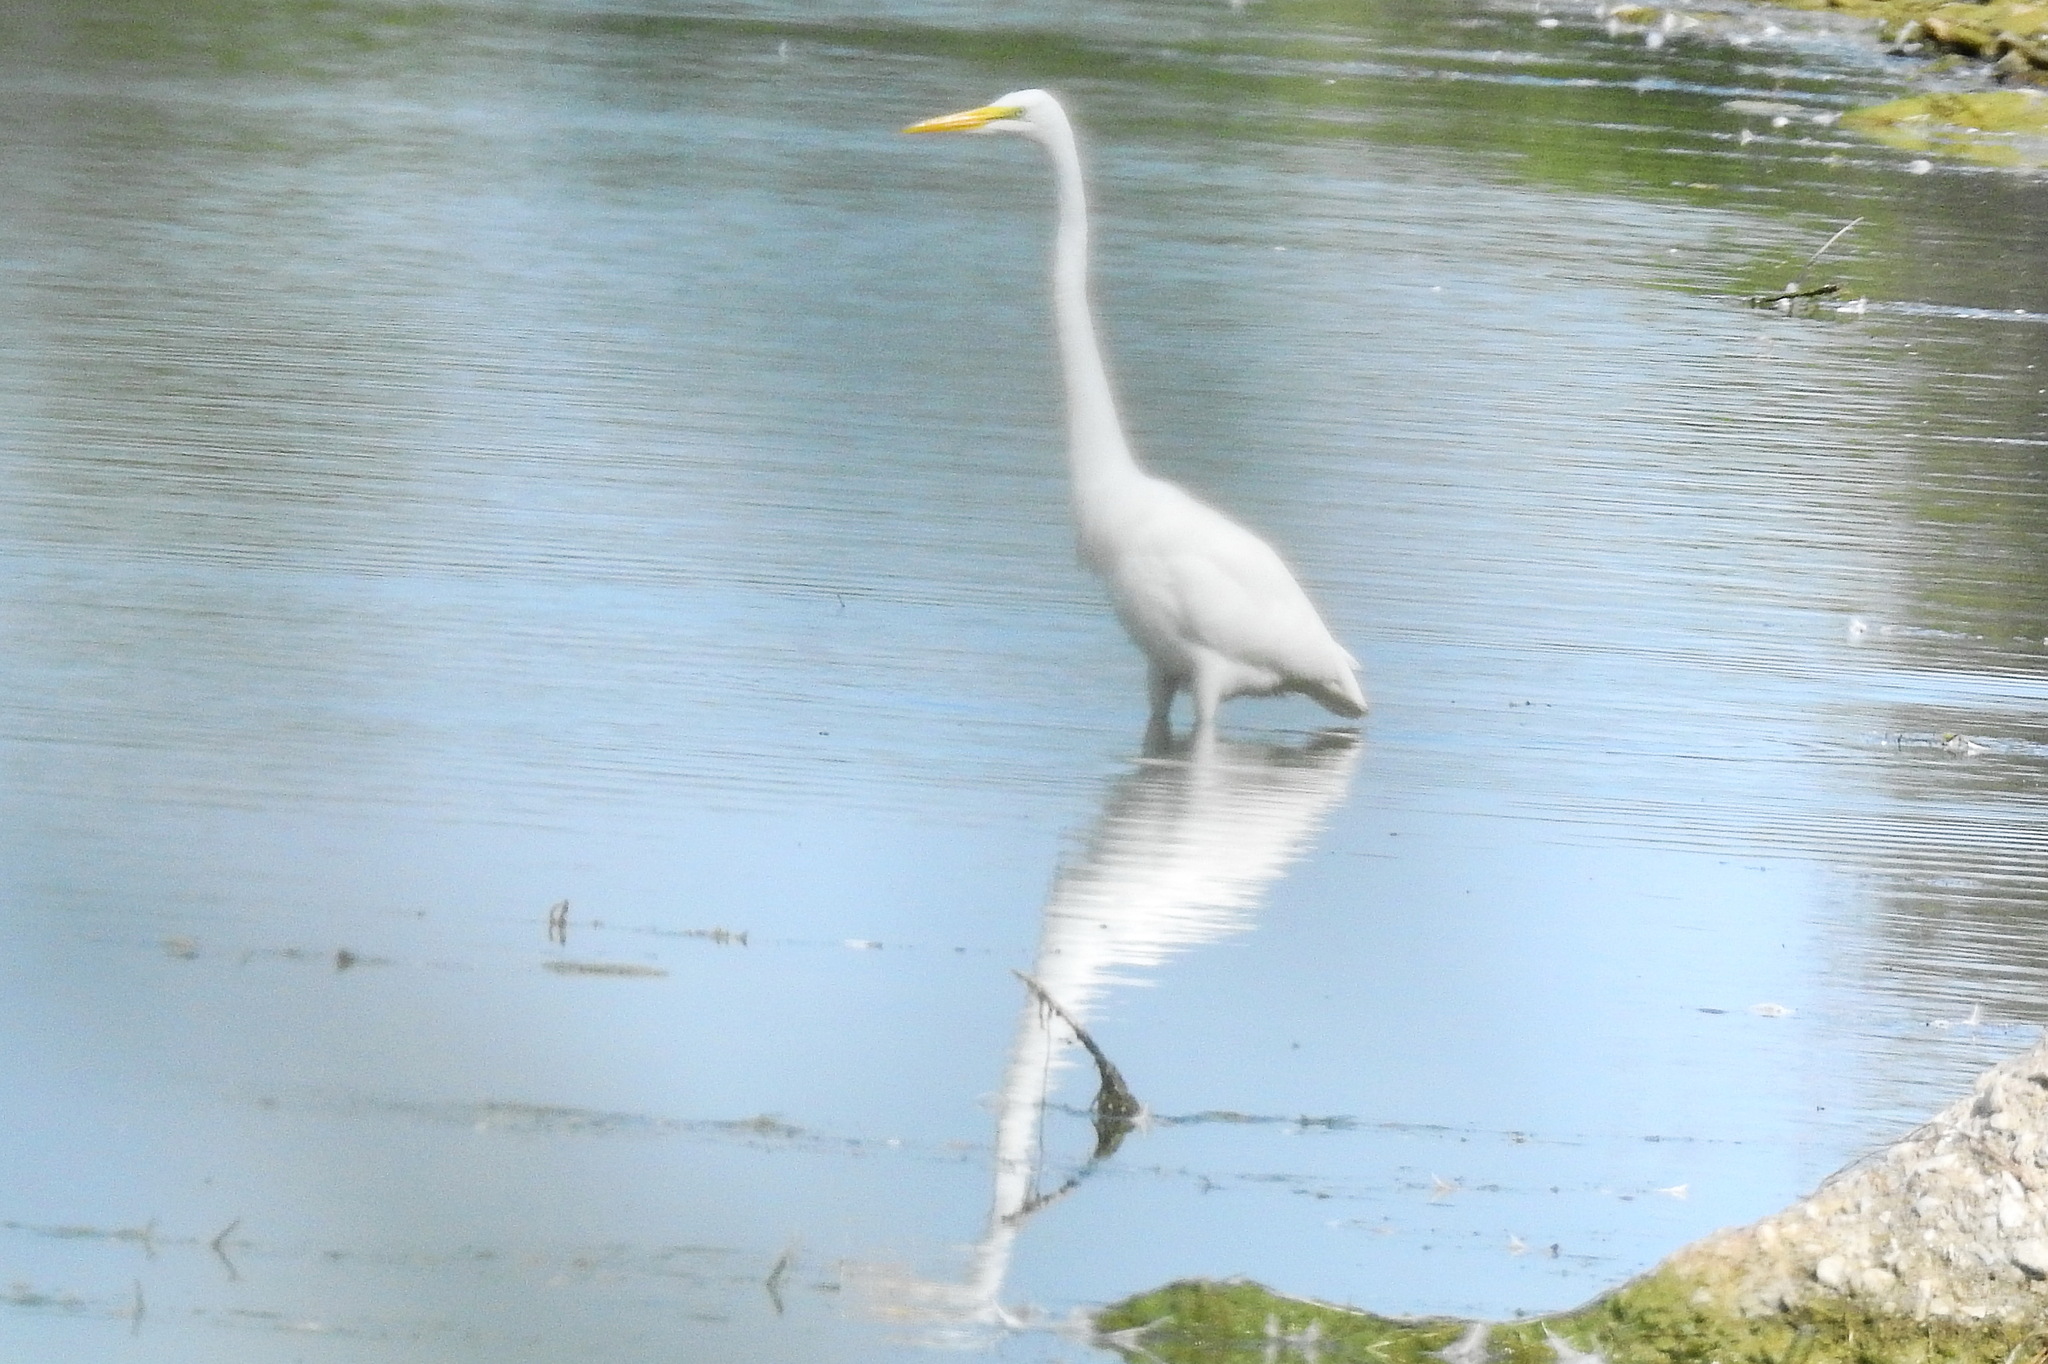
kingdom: Animalia
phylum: Chordata
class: Aves
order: Pelecaniformes
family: Ardeidae
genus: Ardea
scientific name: Ardea alba
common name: Great egret
